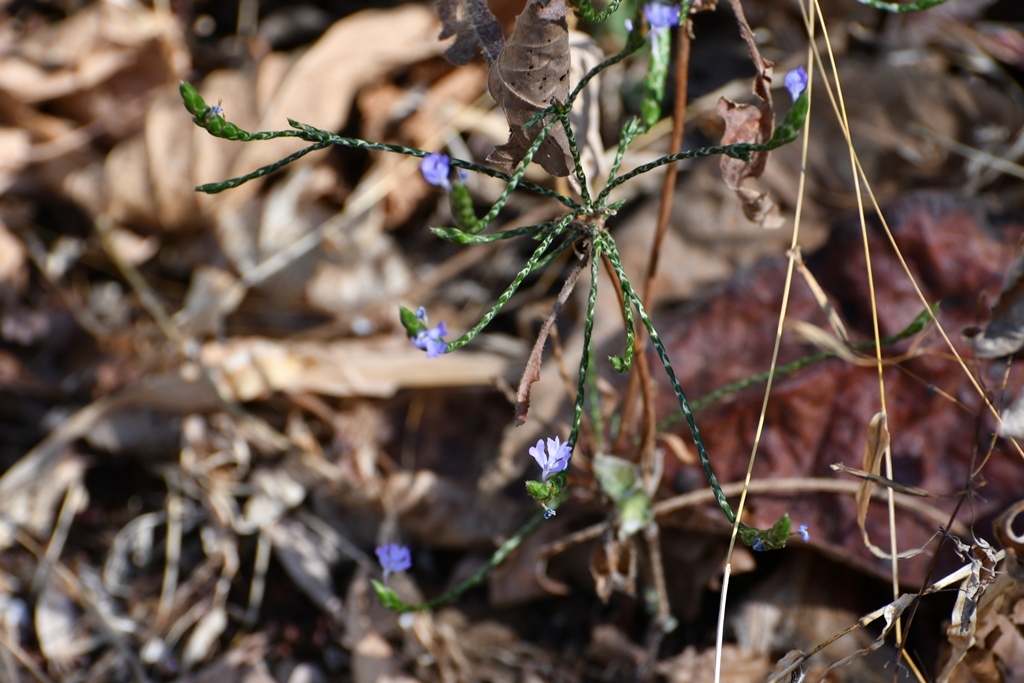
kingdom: Plantae
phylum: Tracheophyta
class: Magnoliopsida
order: Lamiales
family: Acanthaceae
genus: Elytraria
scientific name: Elytraria imbricata
